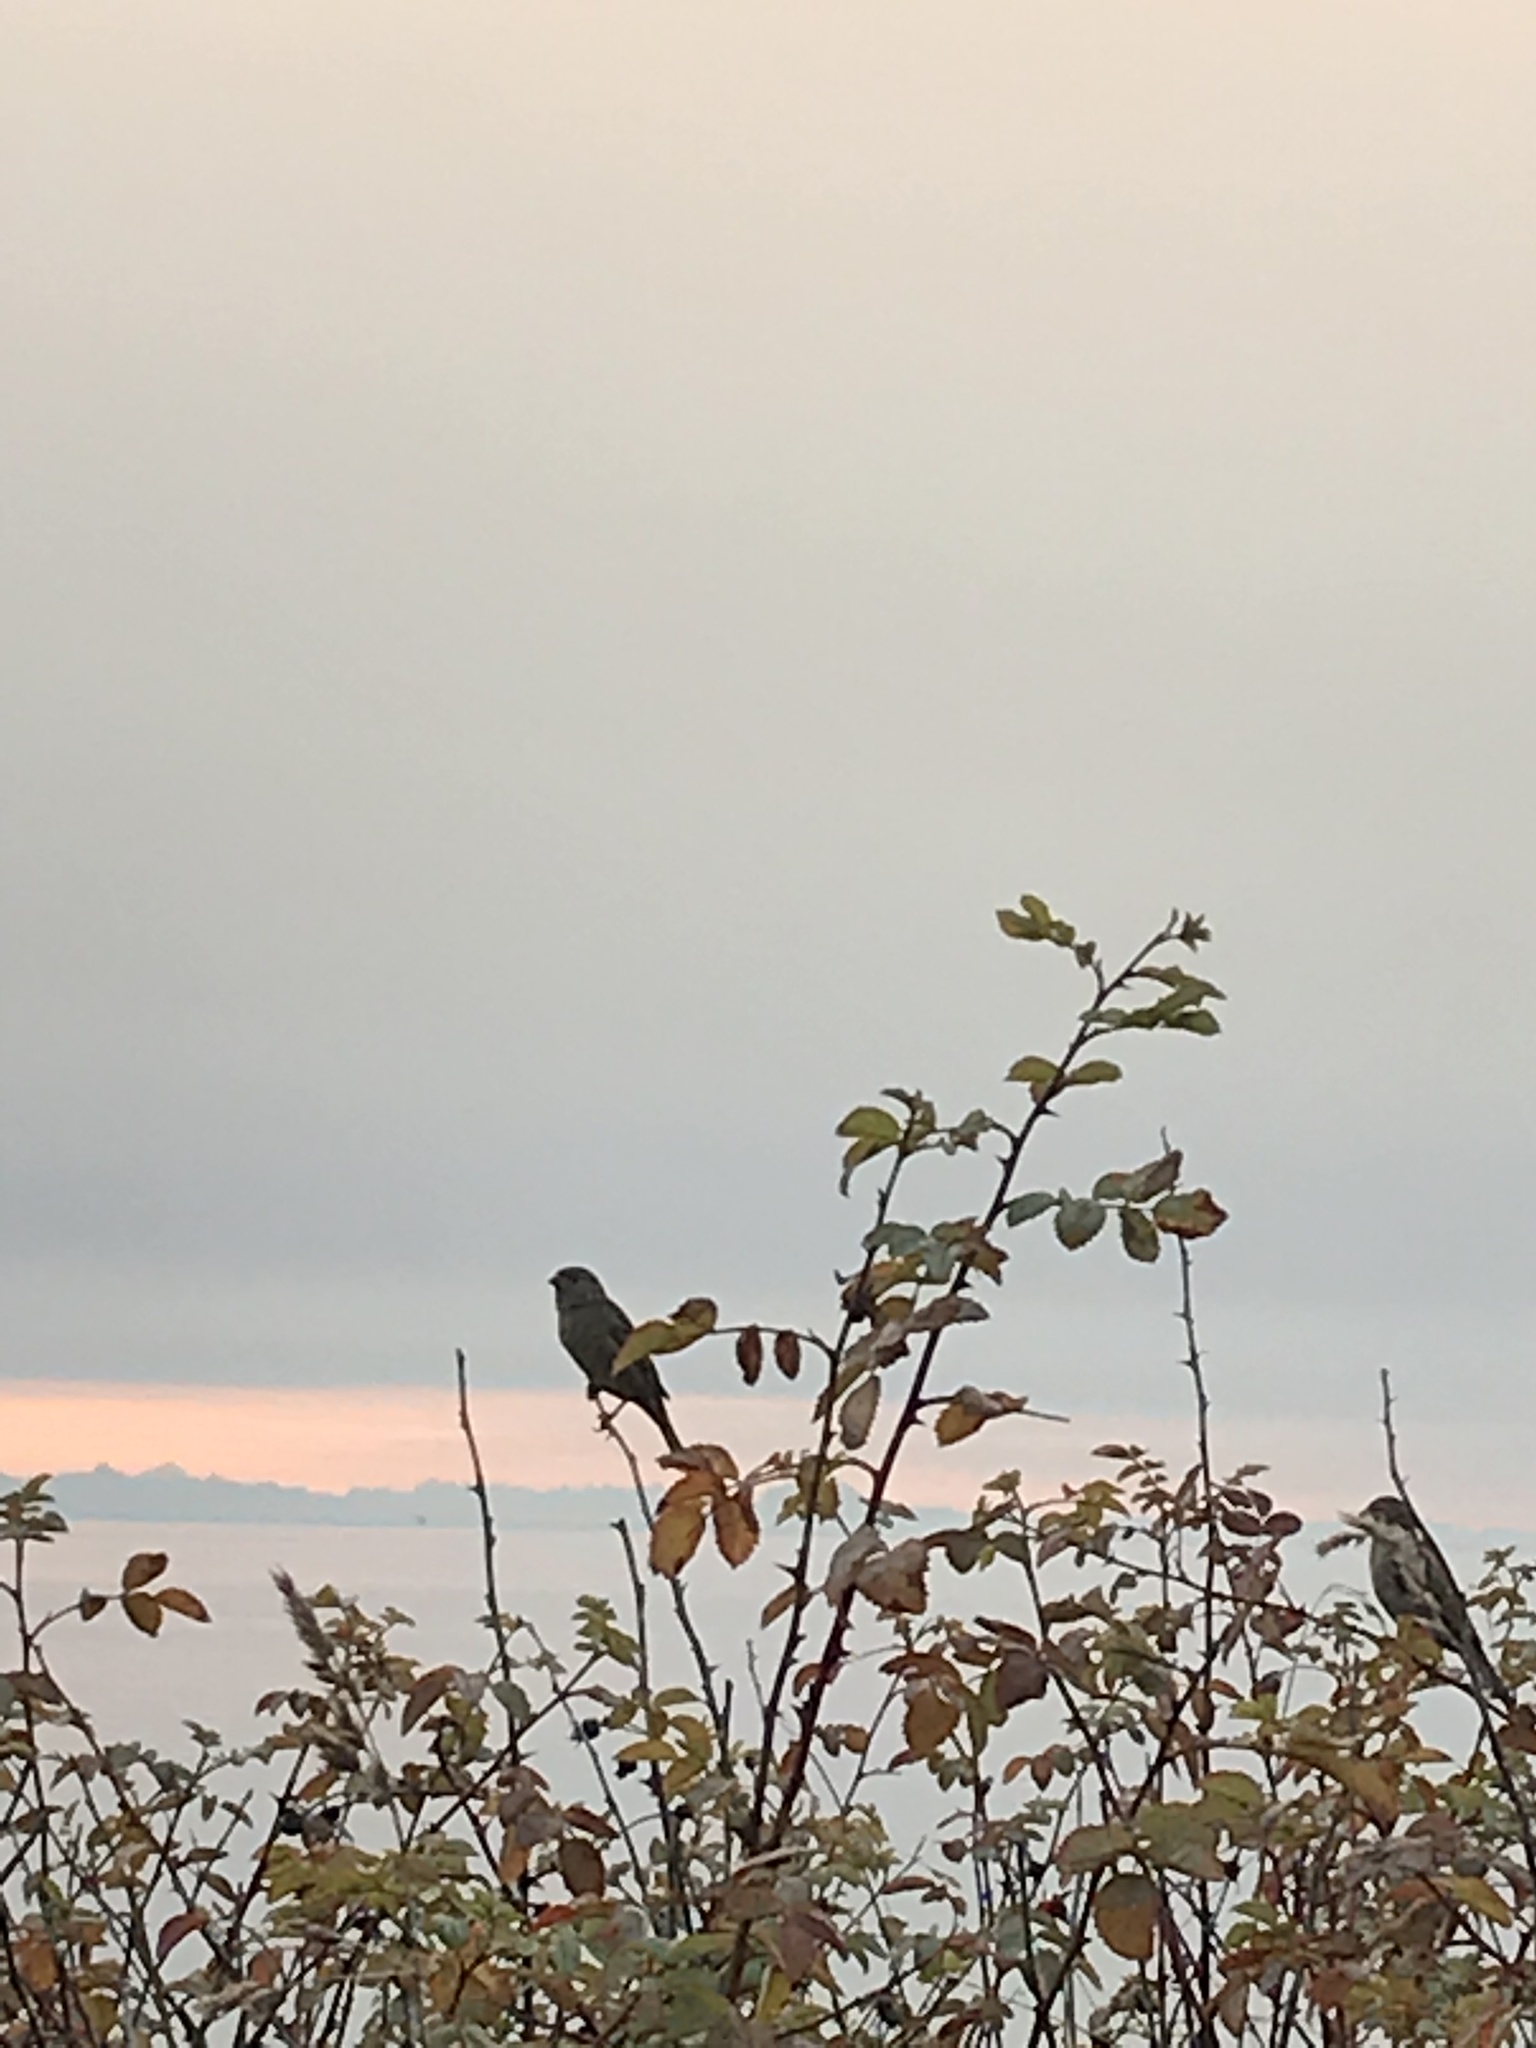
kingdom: Animalia
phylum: Chordata
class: Aves
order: Passeriformes
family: Passeridae
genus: Passer
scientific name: Passer domesticus
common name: House sparrow
